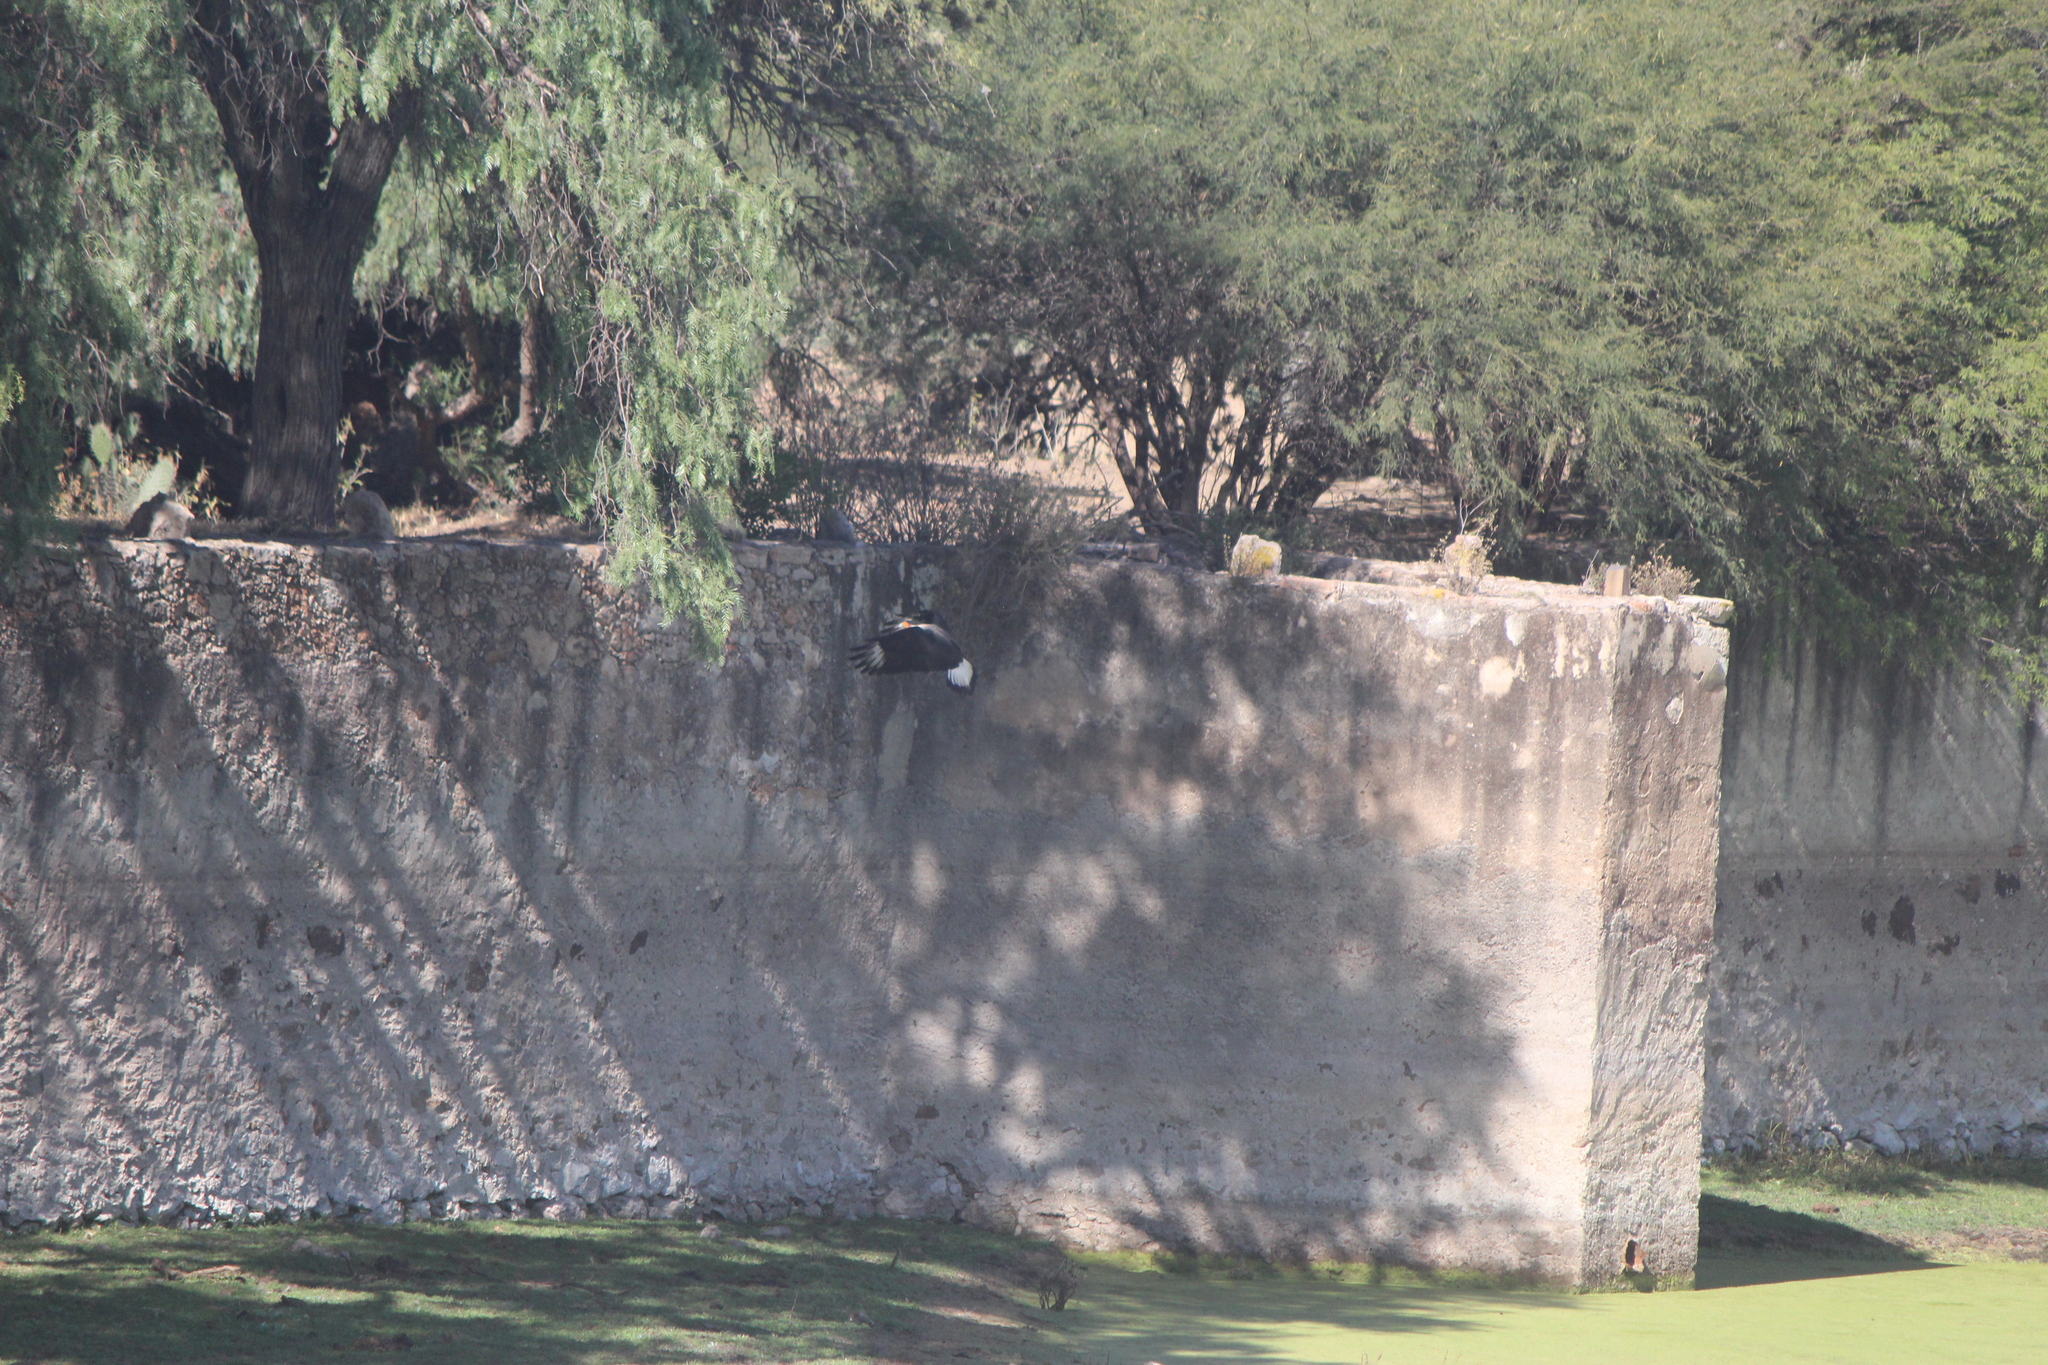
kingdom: Animalia
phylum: Chordata
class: Aves
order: Falconiformes
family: Falconidae
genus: Caracara
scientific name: Caracara plancus
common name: Southern caracara
